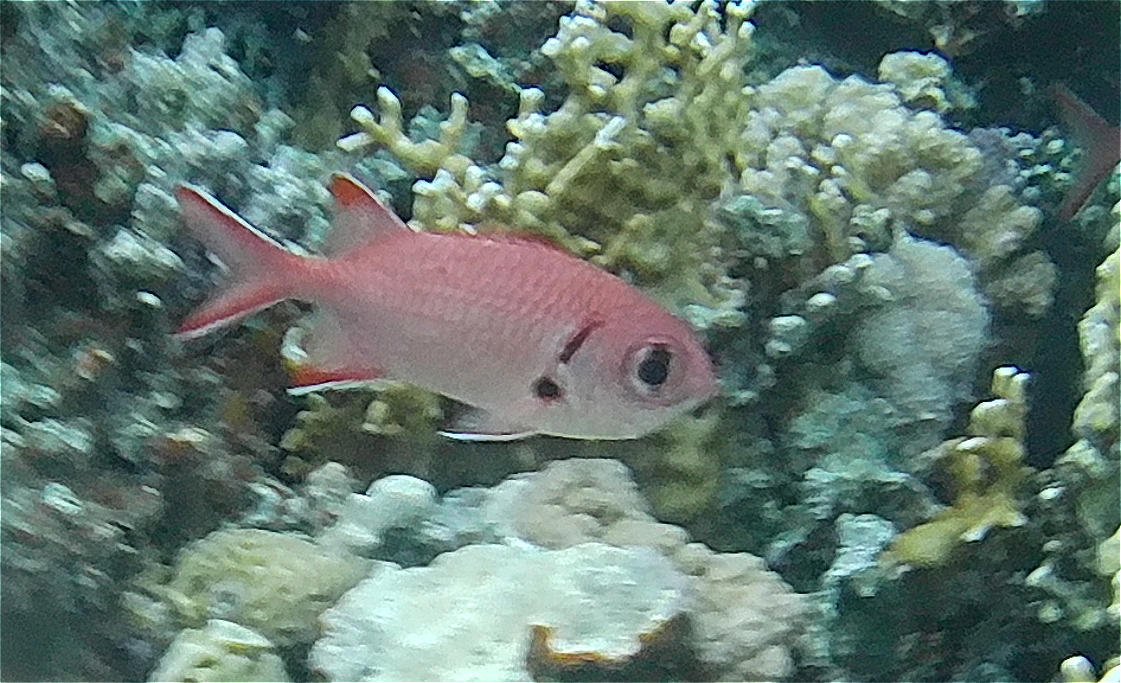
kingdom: Animalia
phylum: Chordata
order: Beryciformes
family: Holocentridae
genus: Myripristis
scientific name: Myripristis murdjan
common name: Big-eye soldierfish
